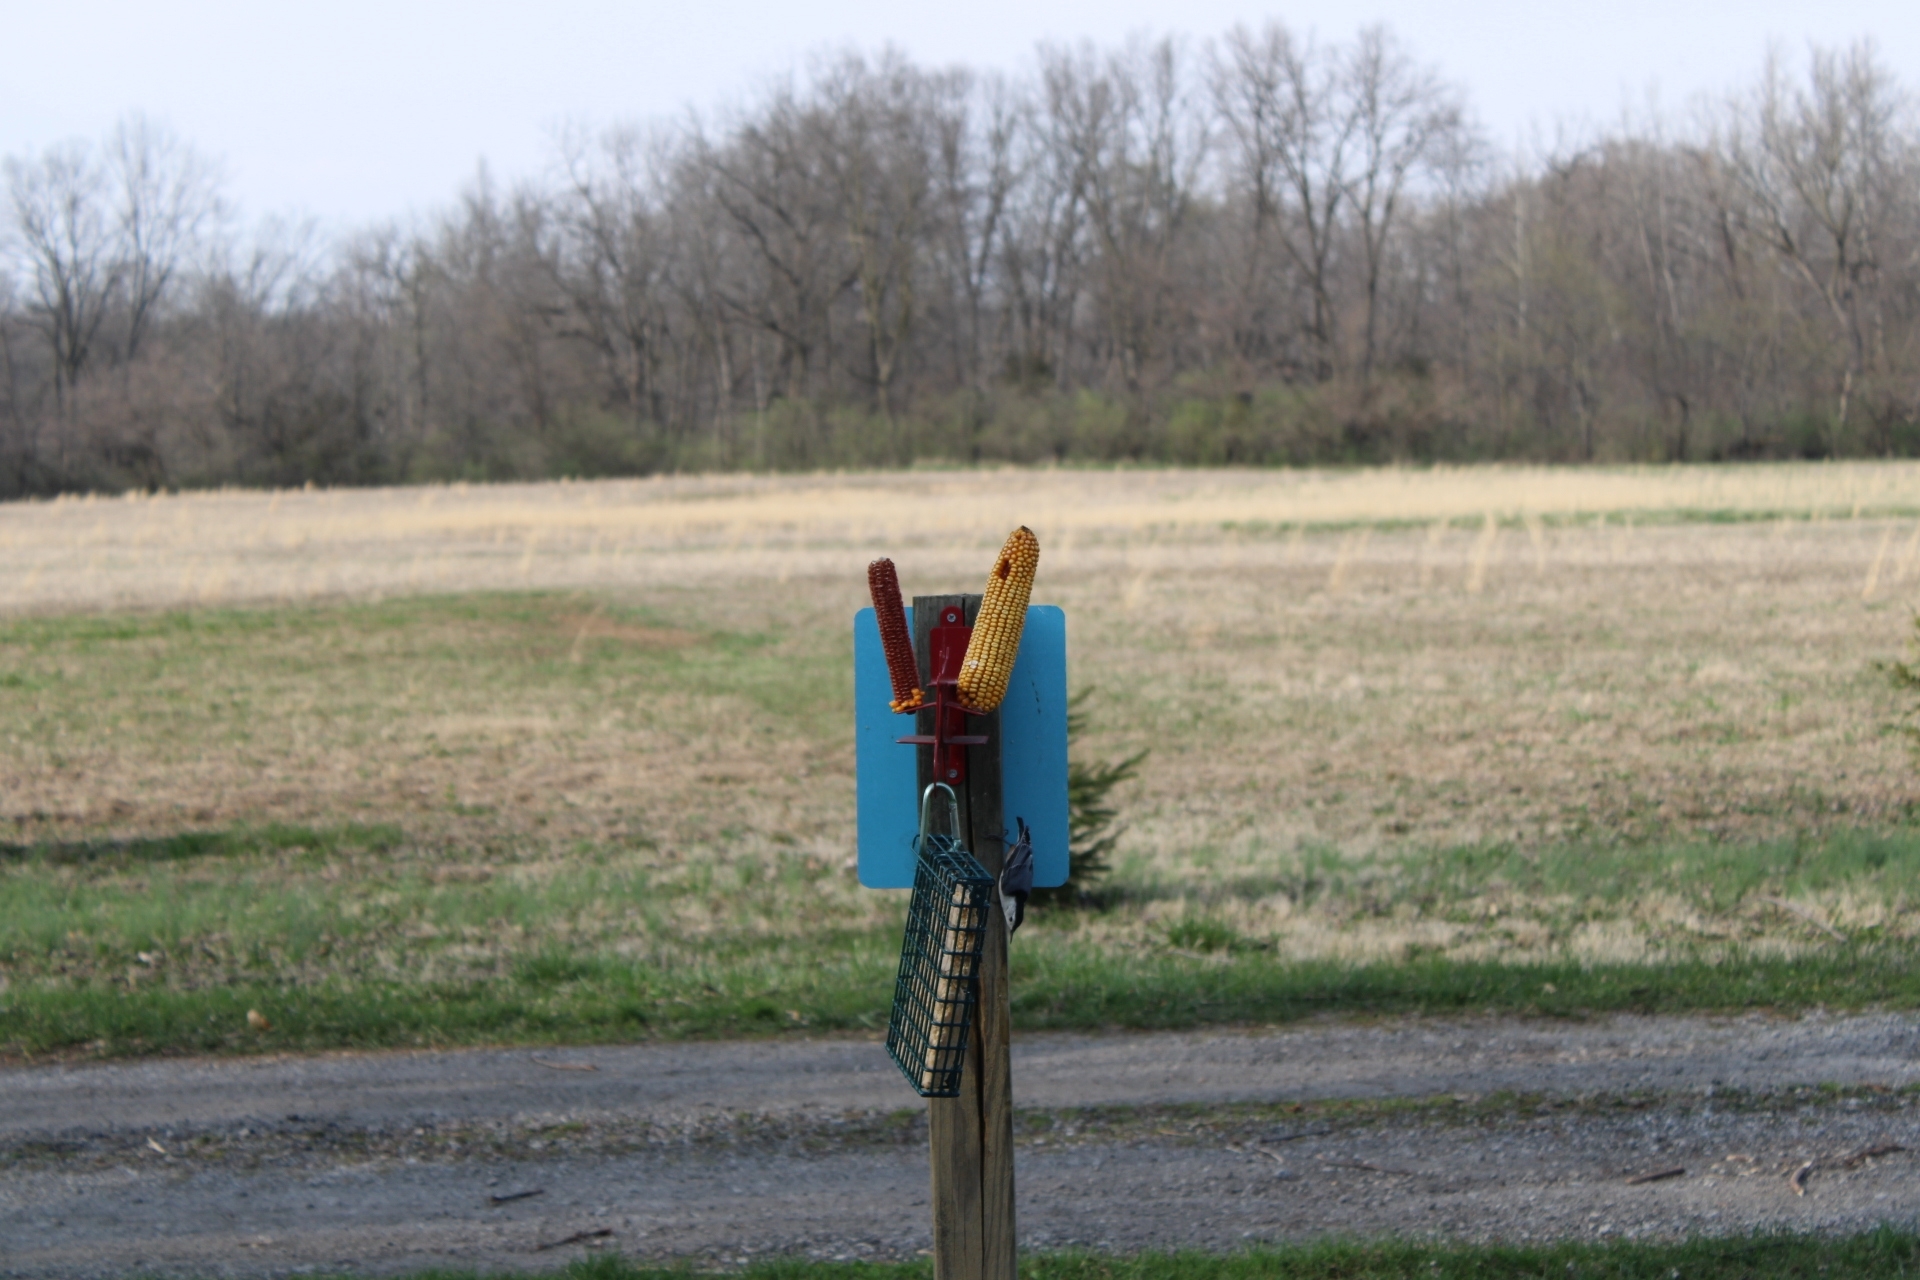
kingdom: Animalia
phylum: Chordata
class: Aves
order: Passeriformes
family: Sittidae
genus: Sitta
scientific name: Sitta carolinensis
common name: White-breasted nuthatch
